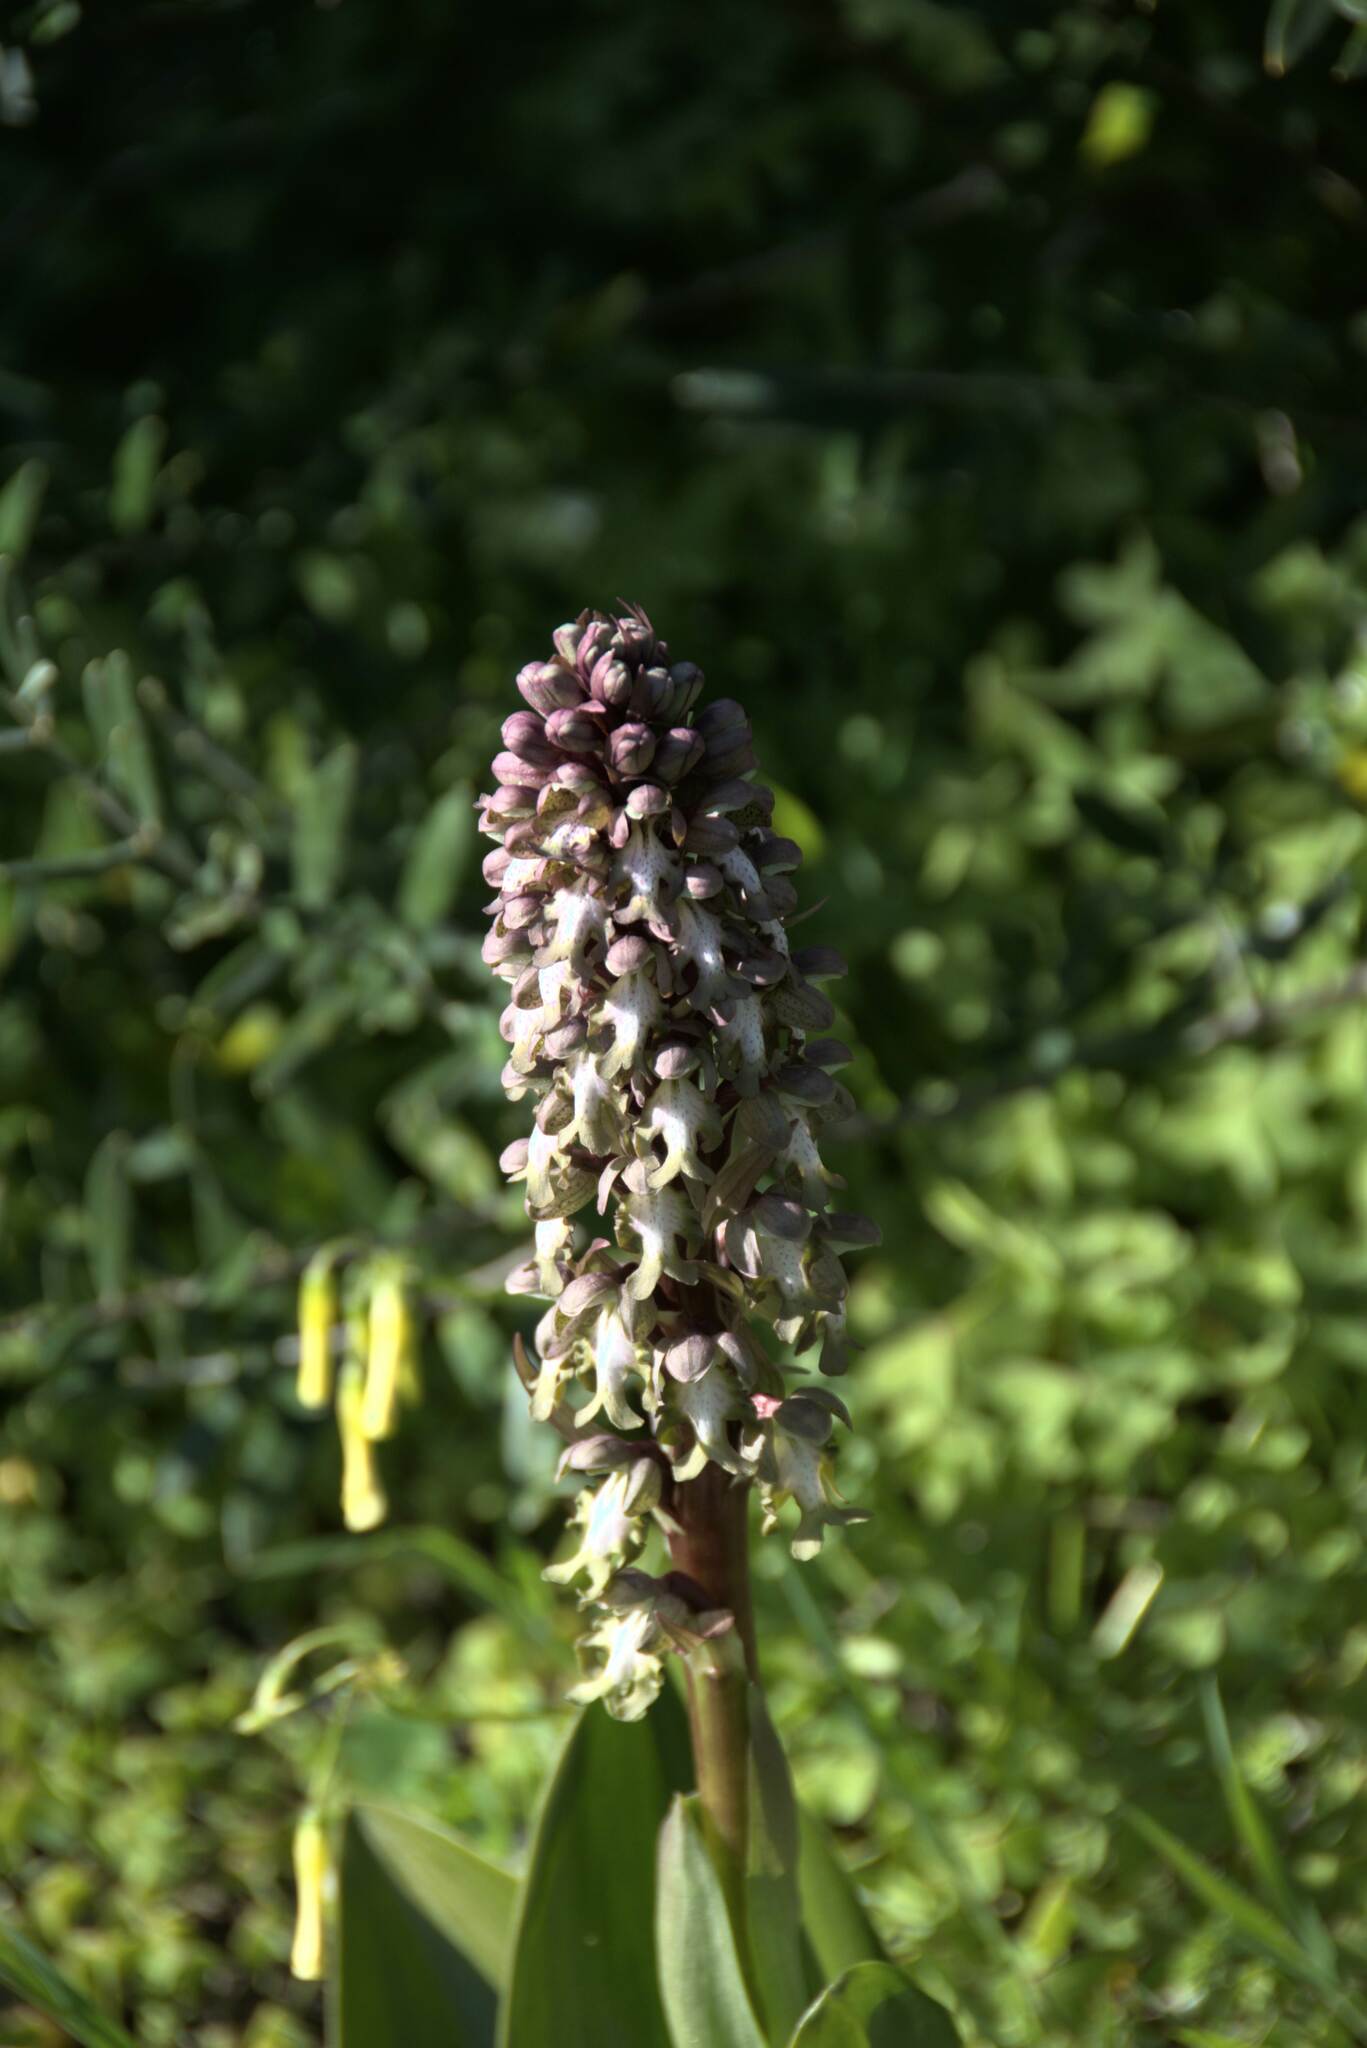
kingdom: Plantae
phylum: Tracheophyta
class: Liliopsida
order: Asparagales
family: Orchidaceae
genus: Himantoglossum
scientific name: Himantoglossum robertianum
